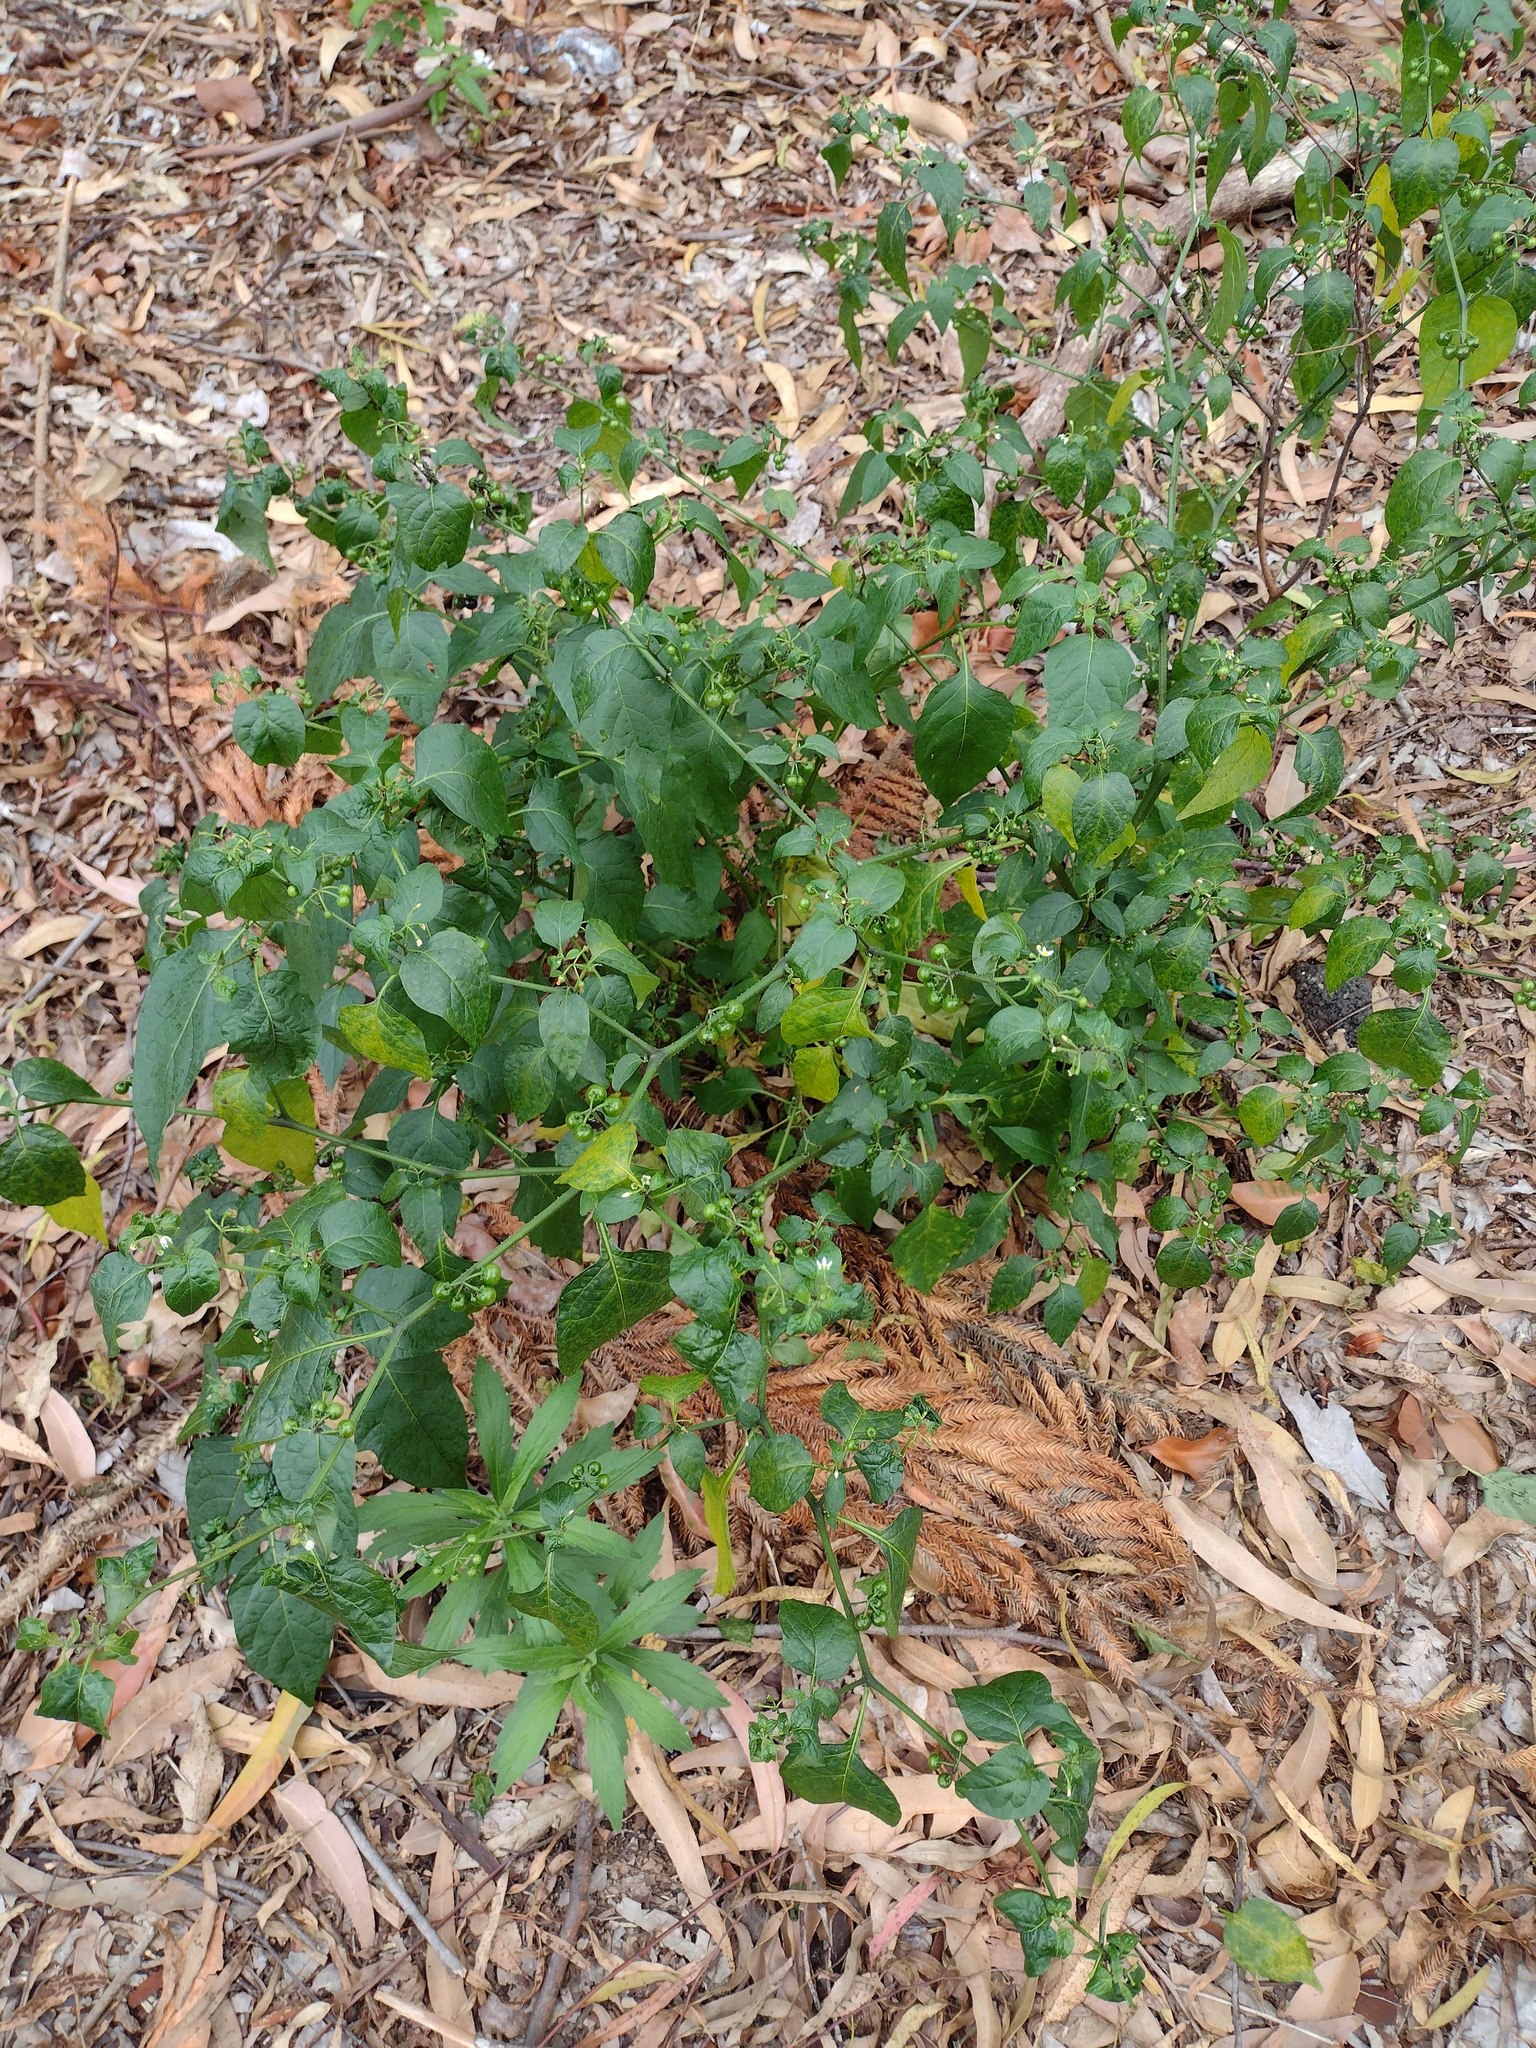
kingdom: Plantae
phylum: Tracheophyta
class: Magnoliopsida
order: Solanales
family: Solanaceae
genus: Solanum
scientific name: Solanum americanum
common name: American black nightshade
